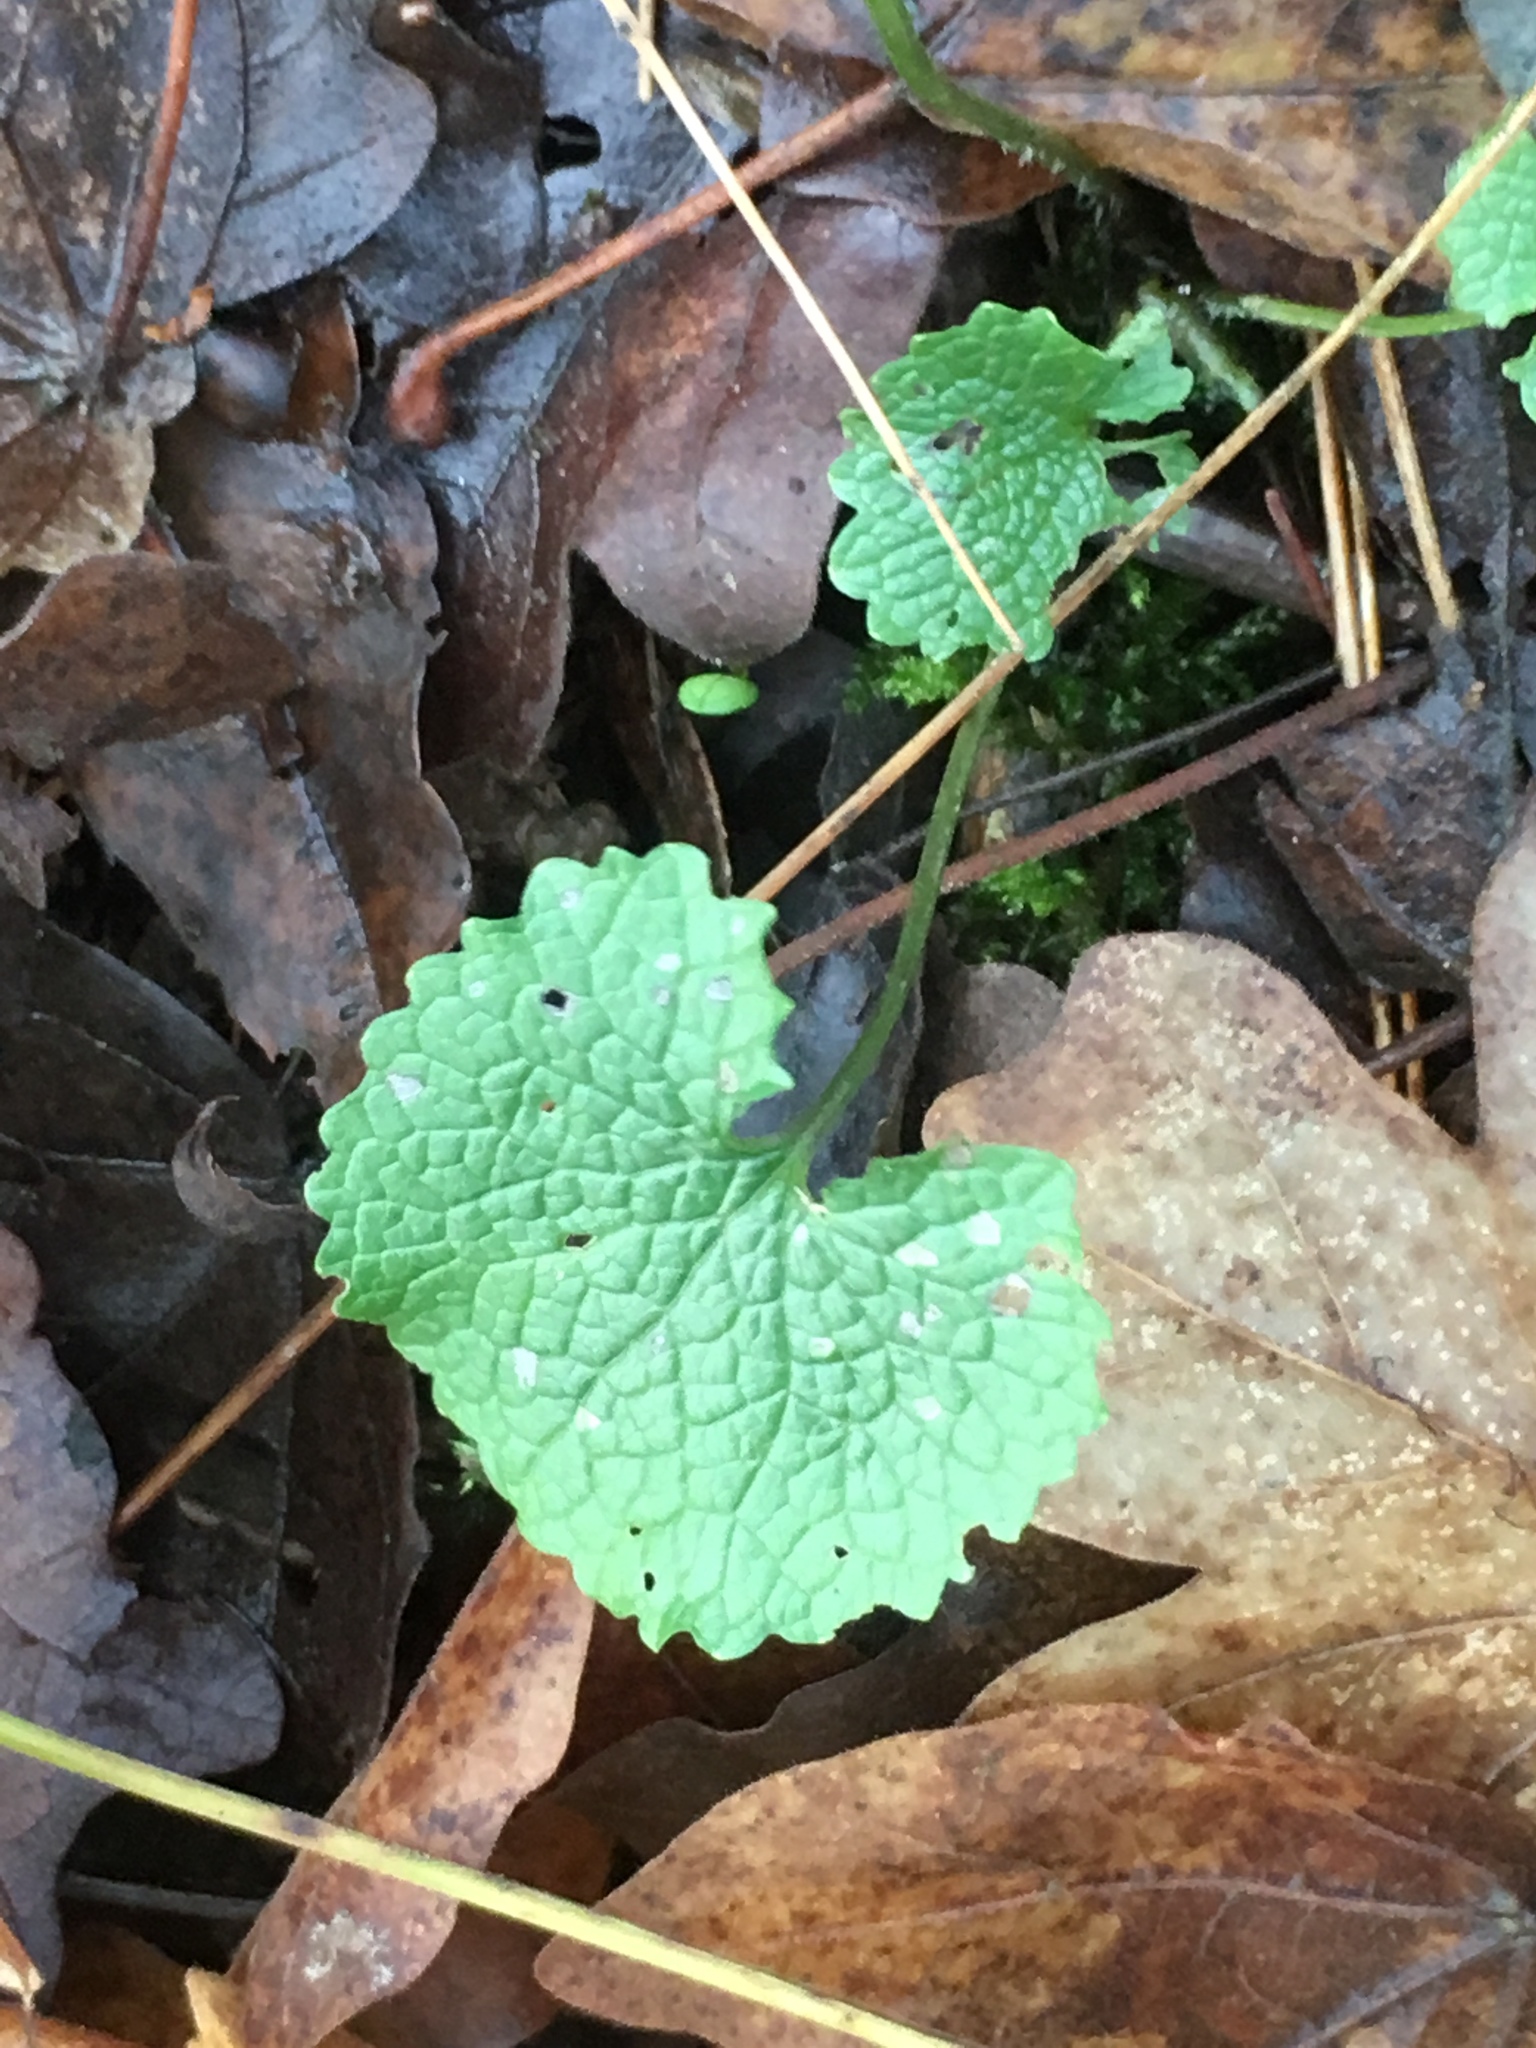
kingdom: Plantae
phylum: Tracheophyta
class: Magnoliopsida
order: Brassicales
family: Brassicaceae
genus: Alliaria
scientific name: Alliaria petiolata
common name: Garlic mustard
